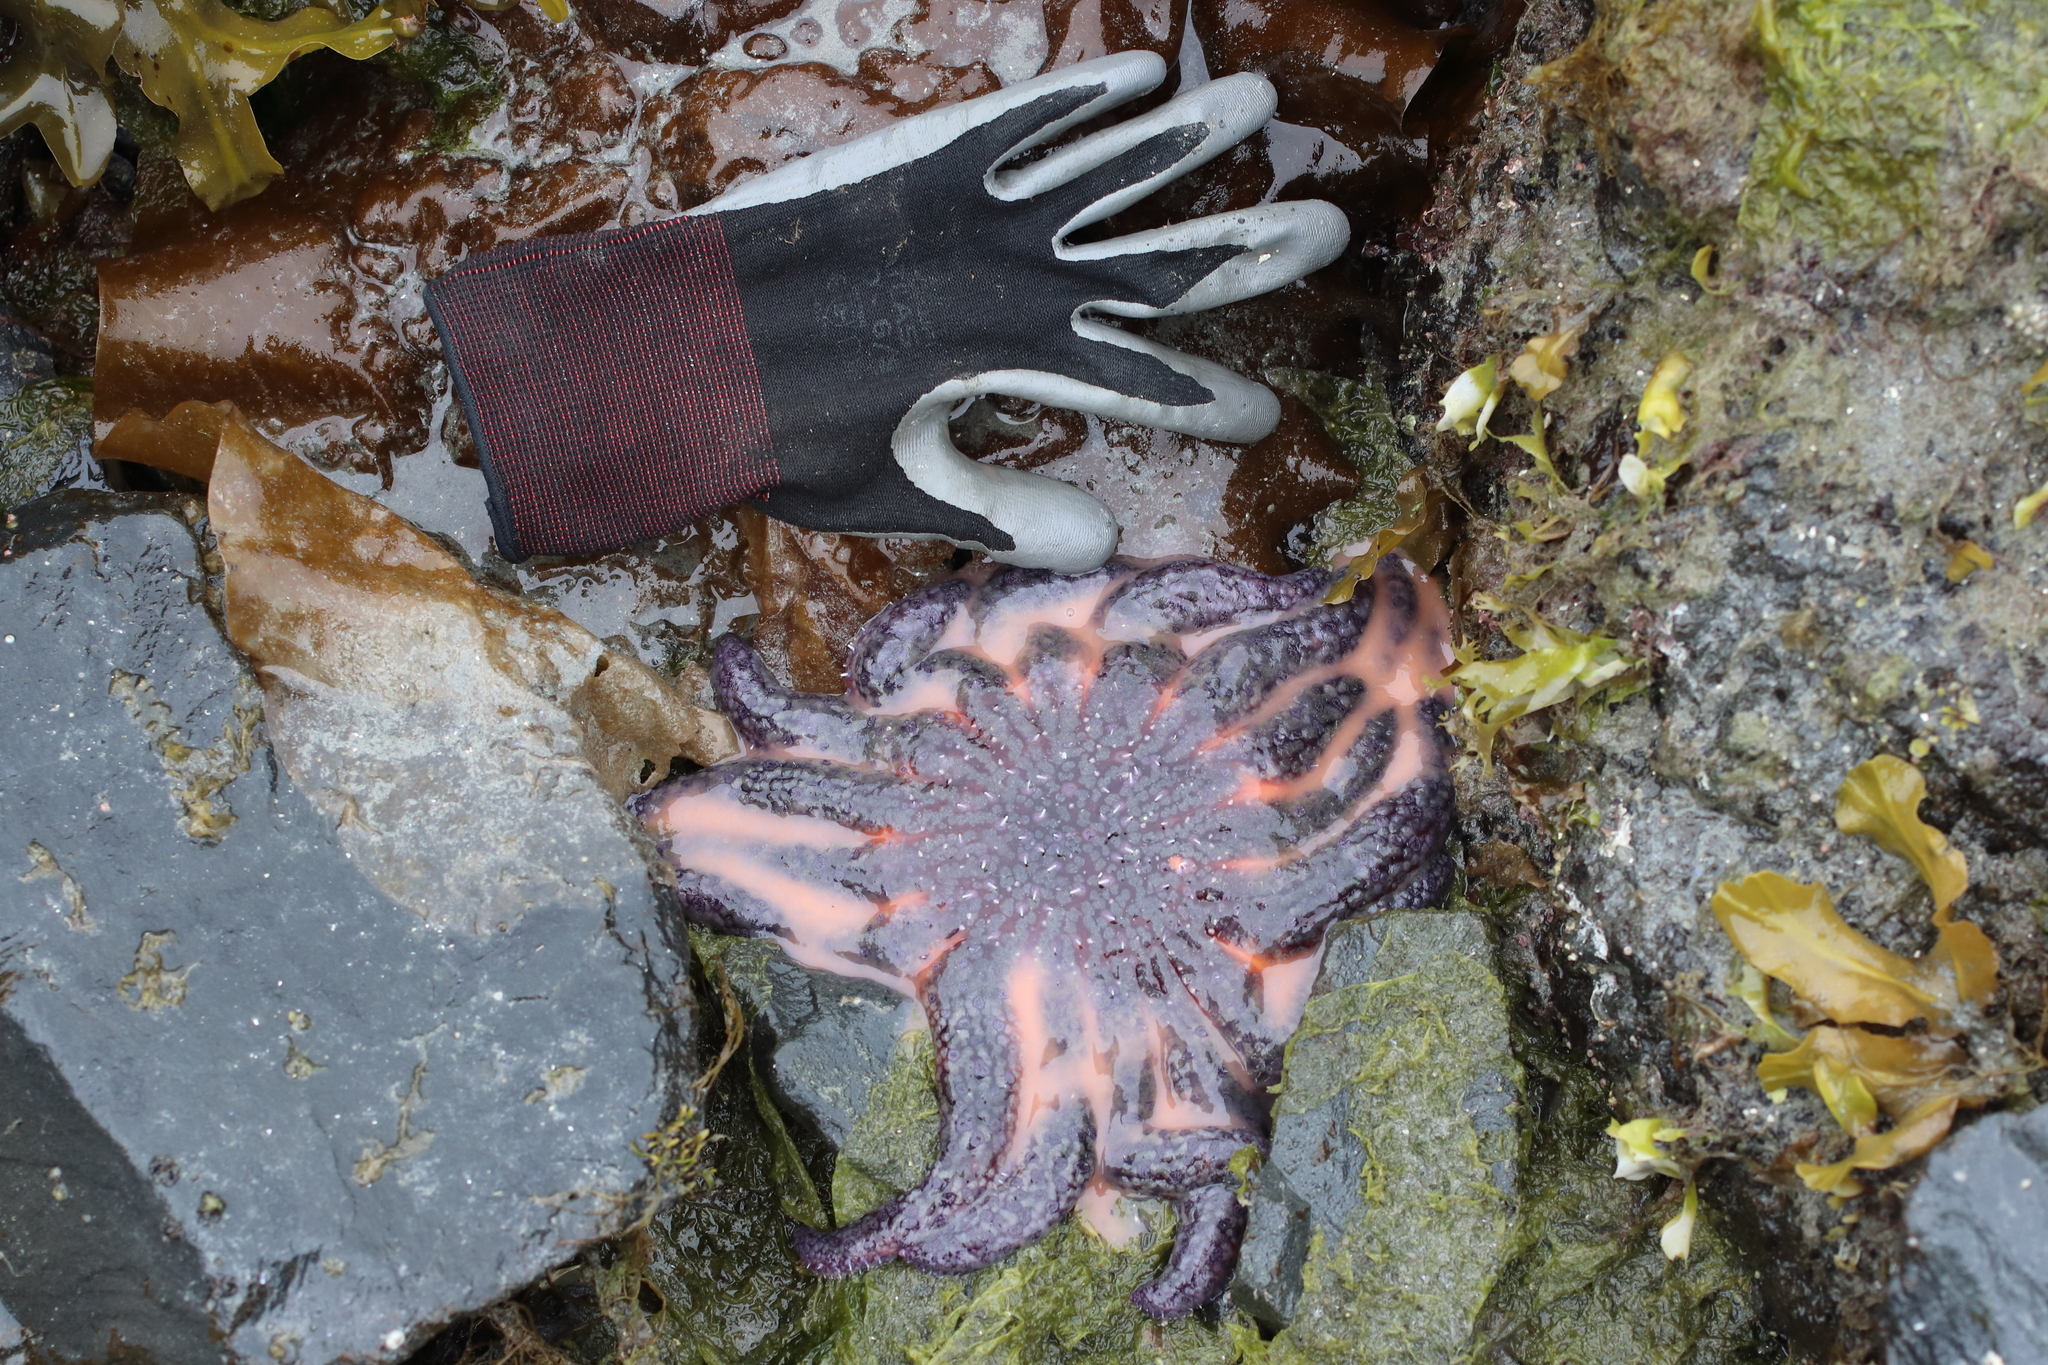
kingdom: Animalia
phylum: Echinodermata
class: Asteroidea
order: Forcipulatida
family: Asteriidae
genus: Pycnopodia
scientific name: Pycnopodia helianthoides
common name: Rag mop
